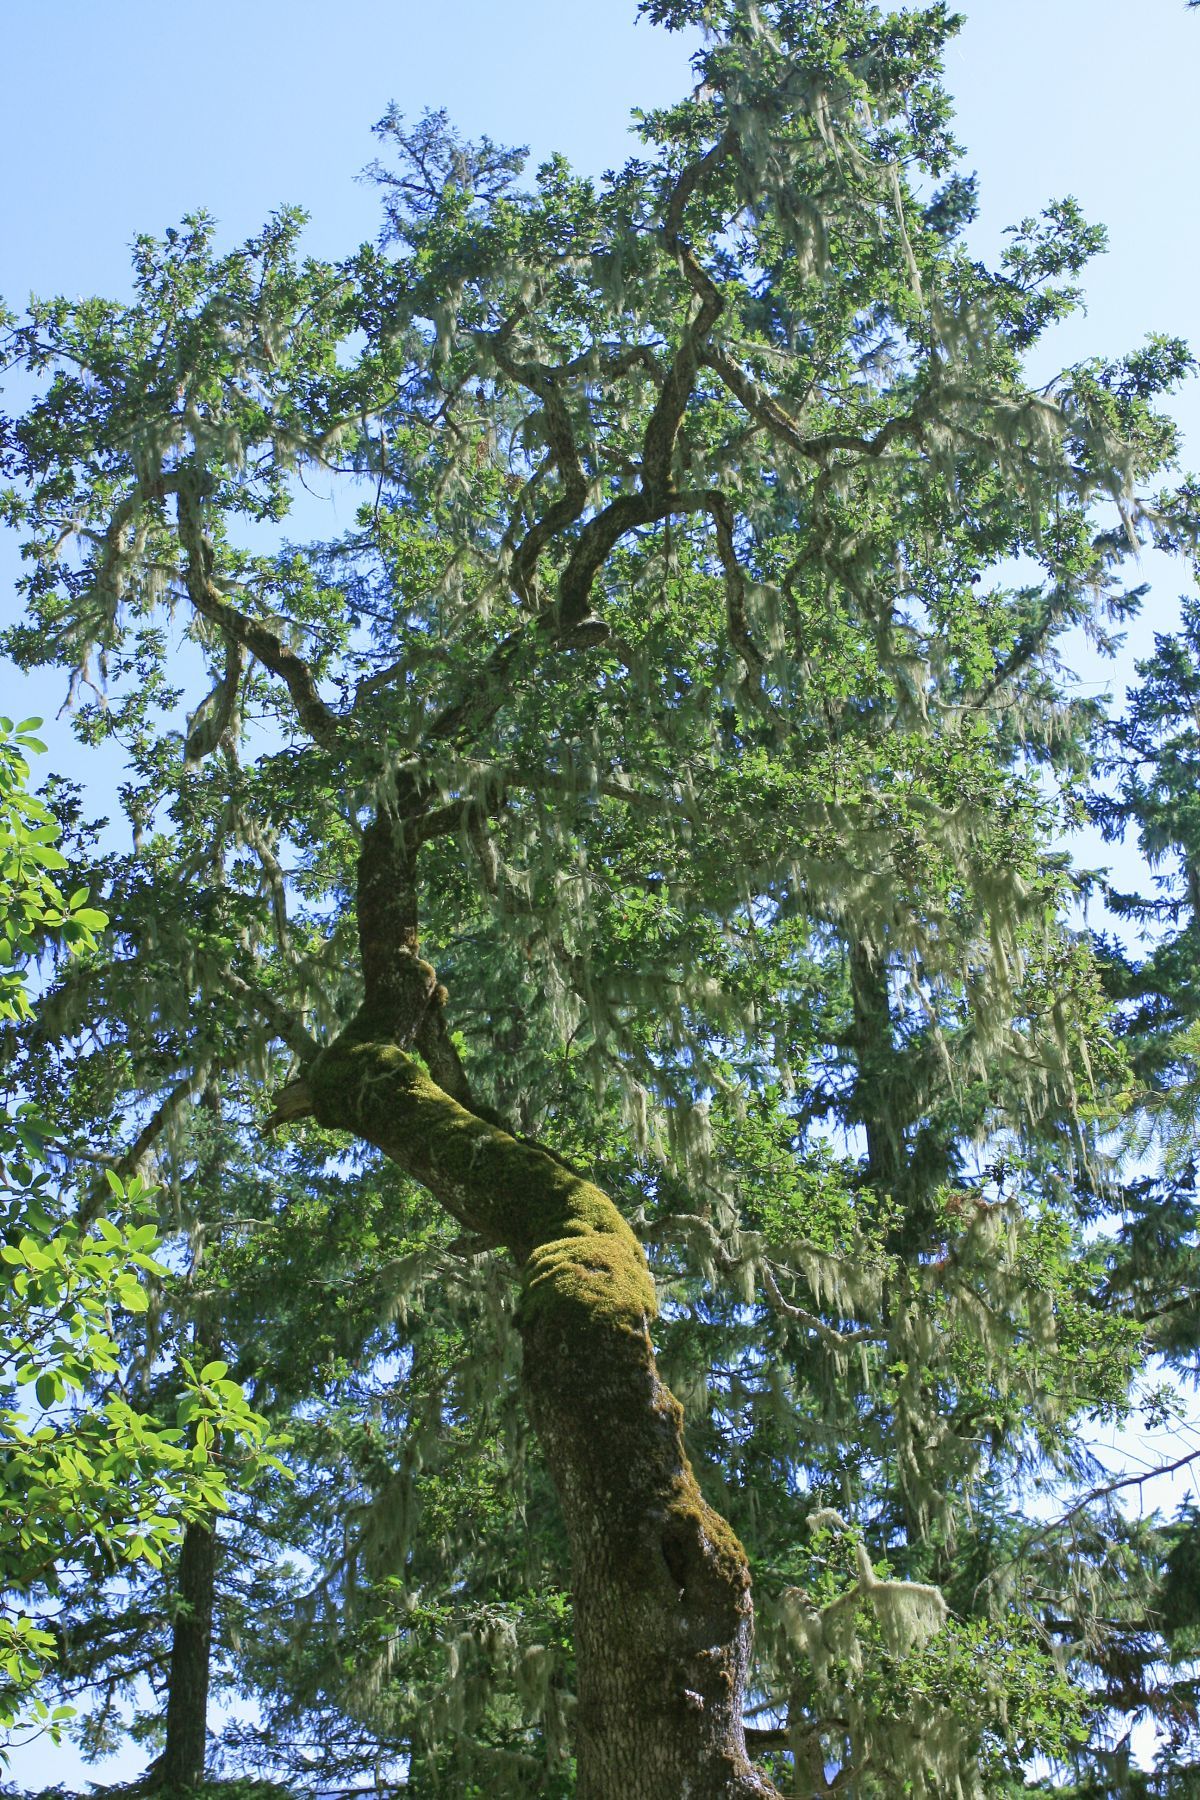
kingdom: Plantae
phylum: Tracheophyta
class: Magnoliopsida
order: Fagales
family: Fagaceae
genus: Quercus
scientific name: Quercus garryana
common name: Garry oak
